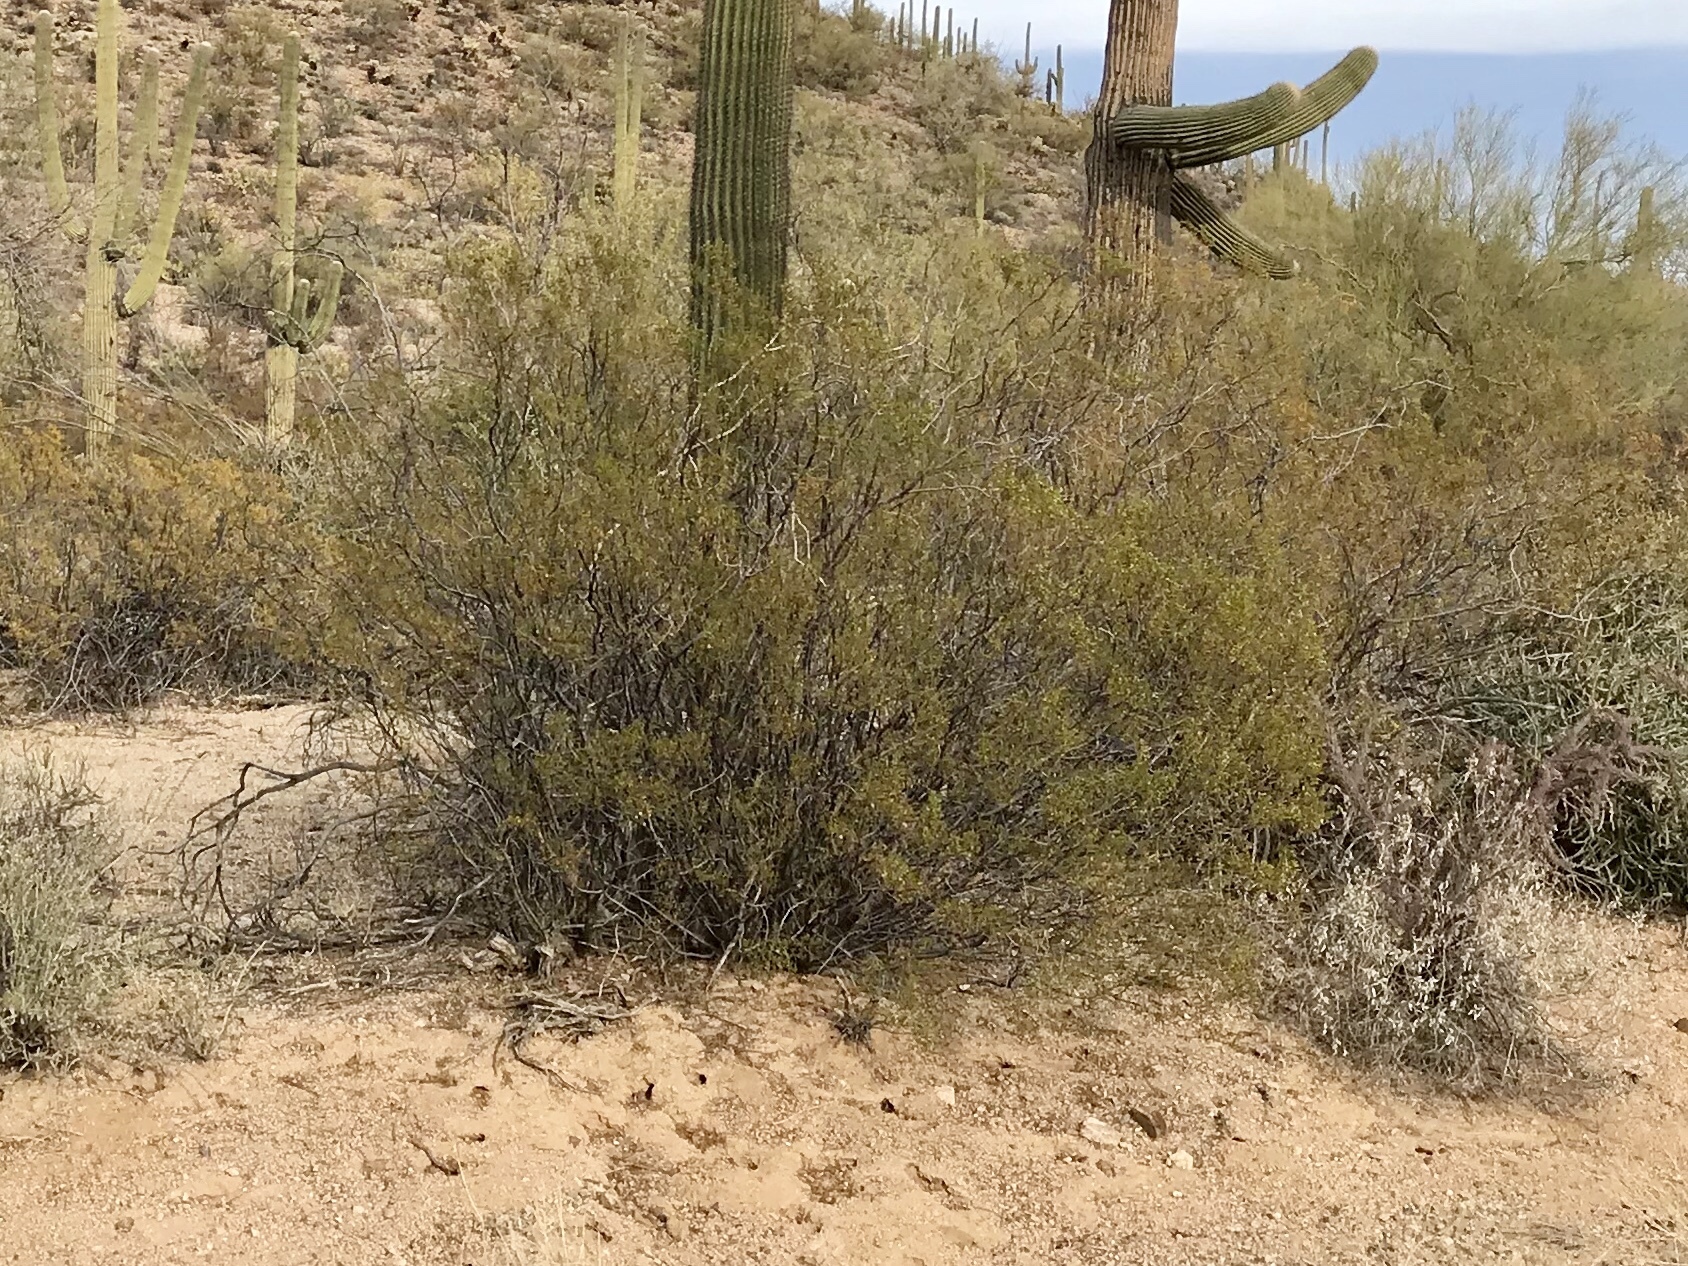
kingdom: Plantae
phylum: Tracheophyta
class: Magnoliopsida
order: Zygophyllales
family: Zygophyllaceae
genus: Larrea
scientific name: Larrea tridentata
